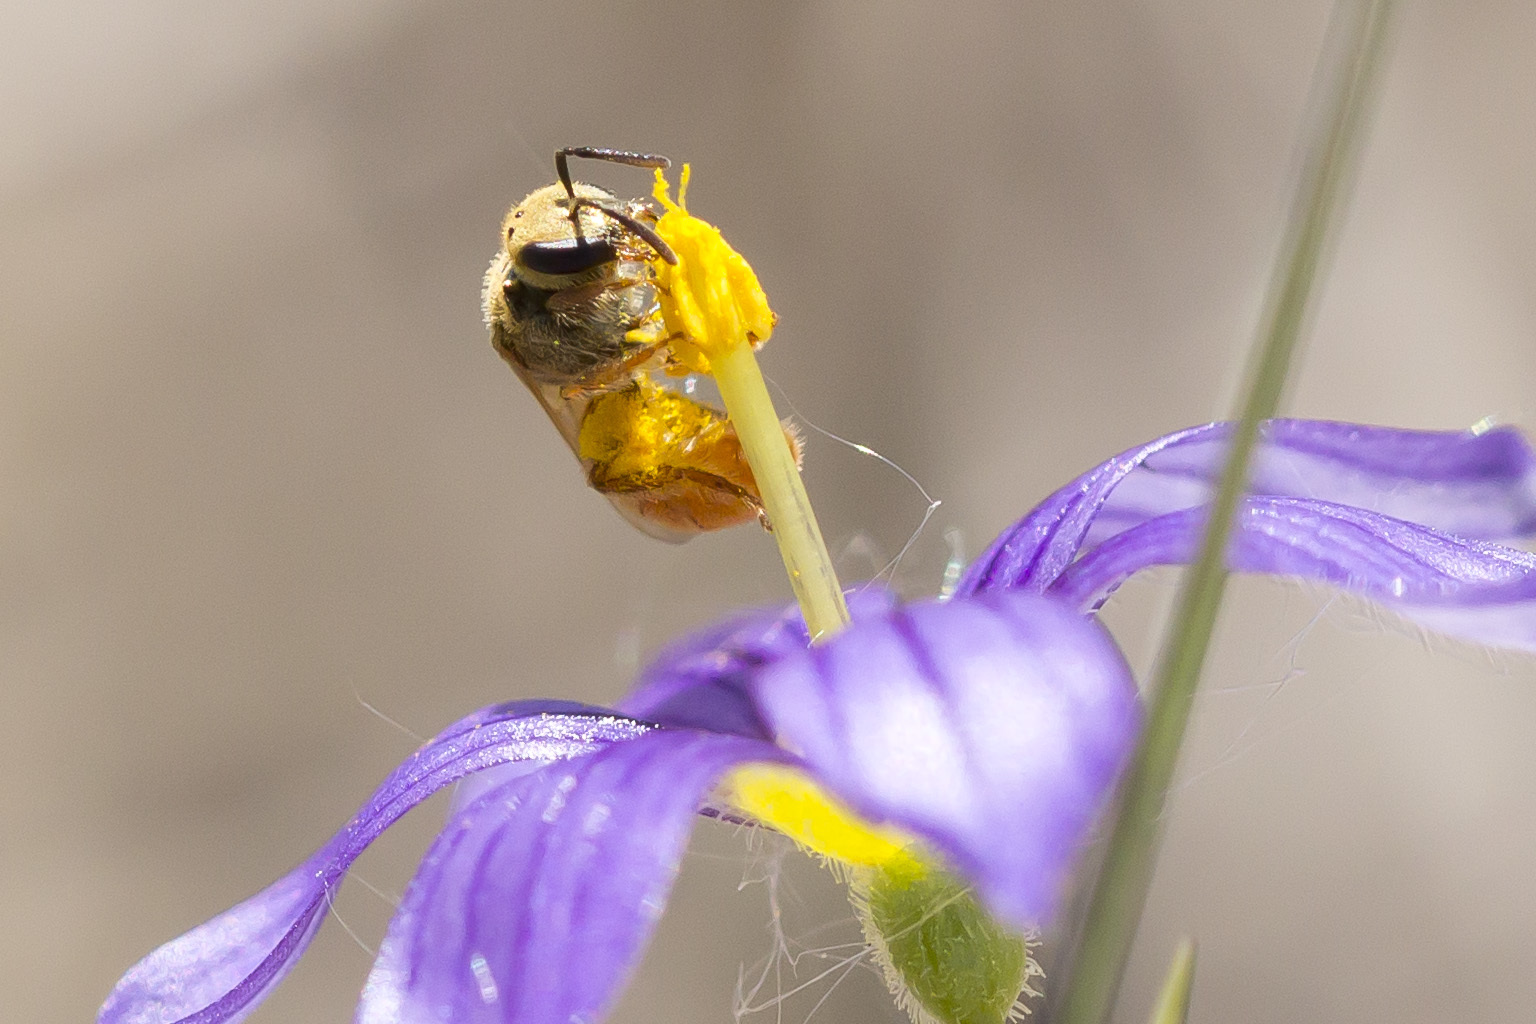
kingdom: Animalia
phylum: Arthropoda
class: Insecta
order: Hymenoptera
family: Halictidae
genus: Lasioglossum
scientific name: Lasioglossum vierecki
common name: Viereck's sweat bee
